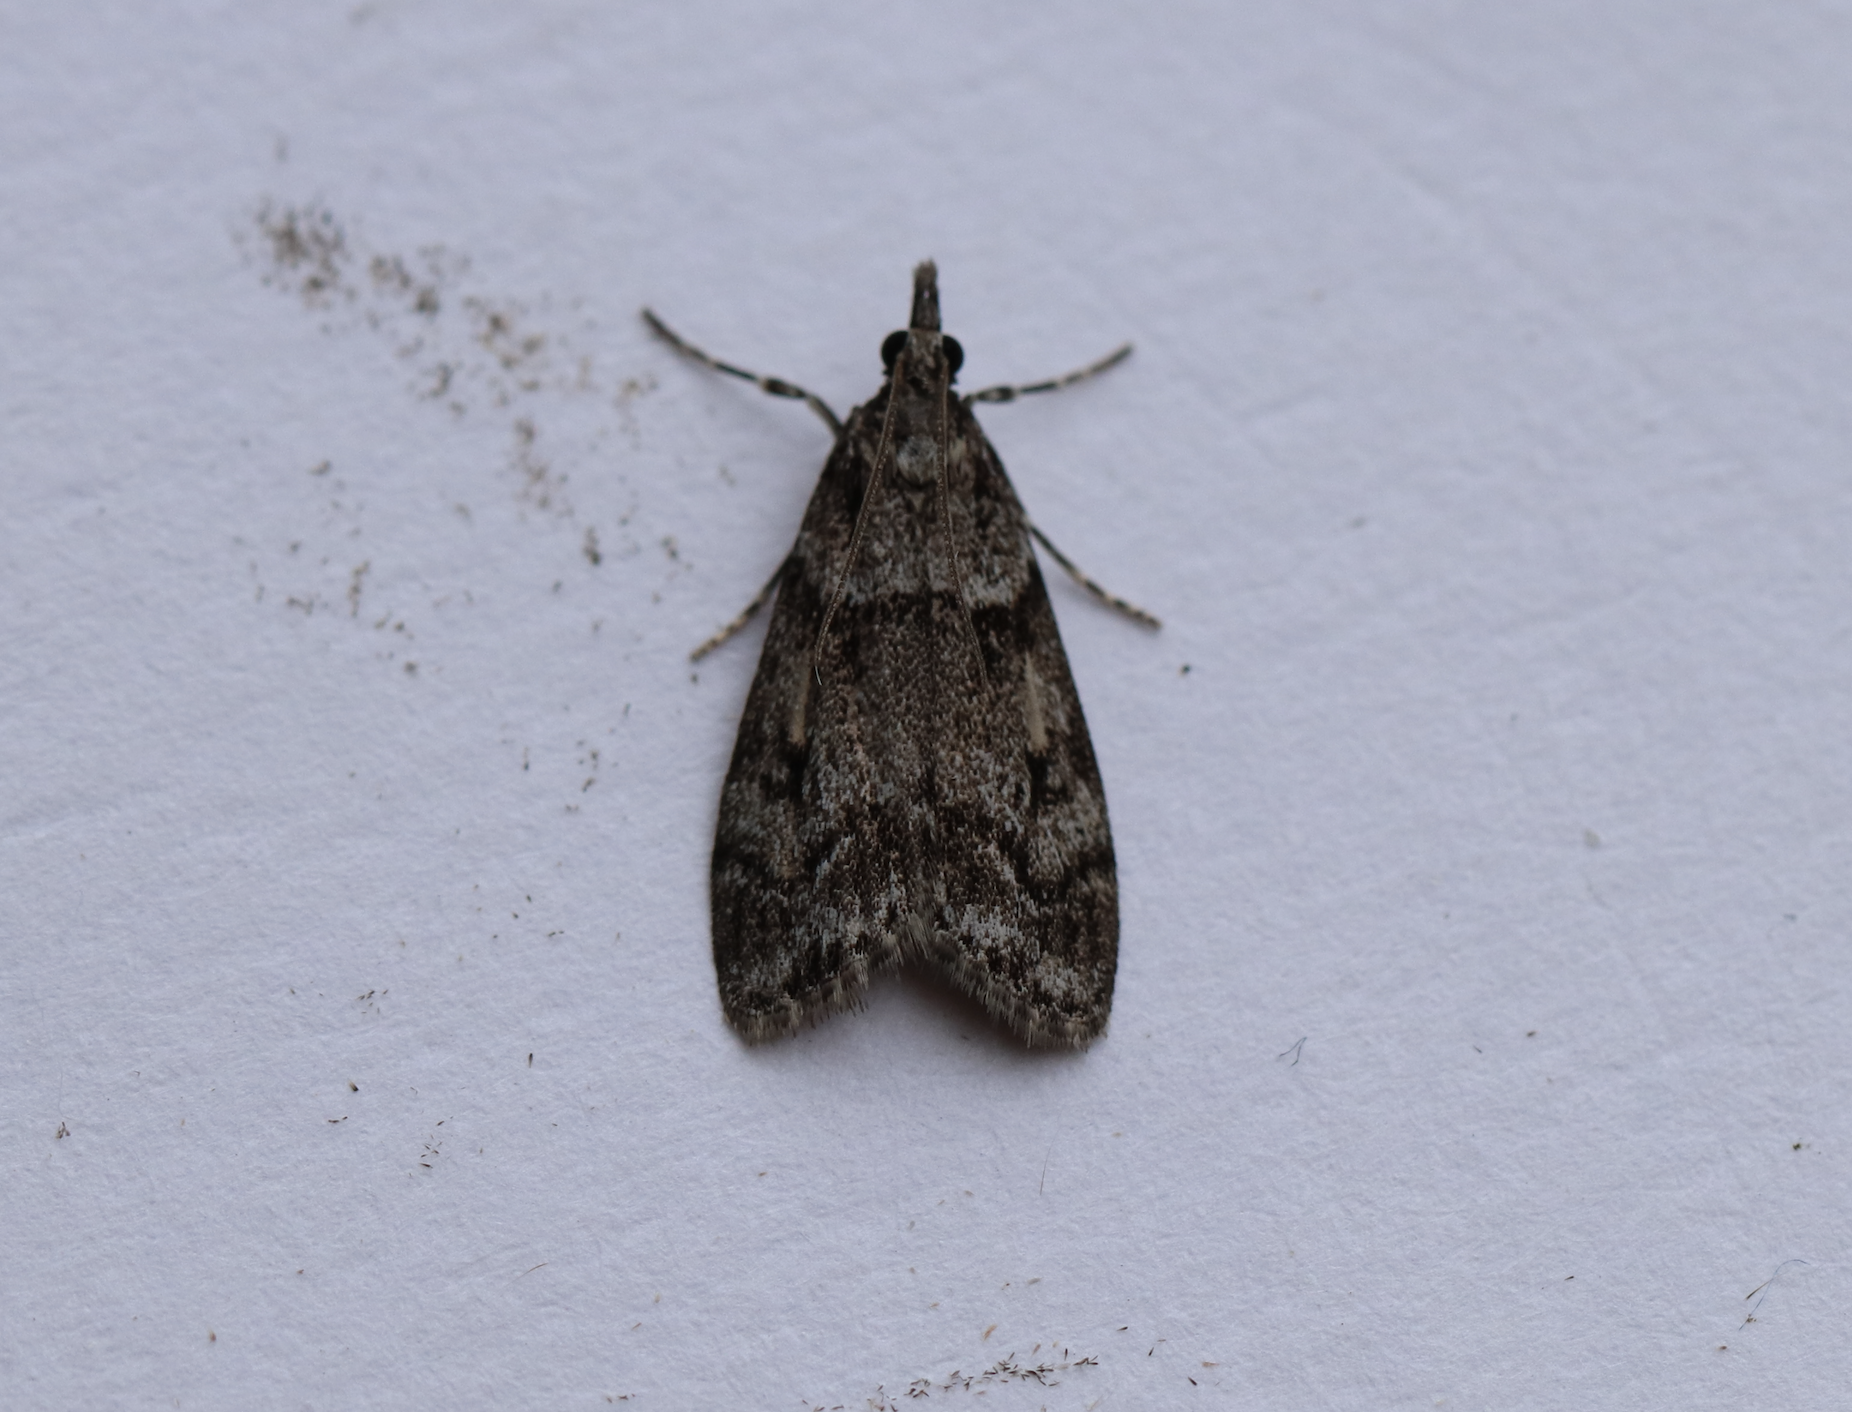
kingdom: Animalia
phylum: Arthropoda
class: Insecta
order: Lepidoptera
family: Crambidae
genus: Gesneria
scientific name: Gesneria centuriella
